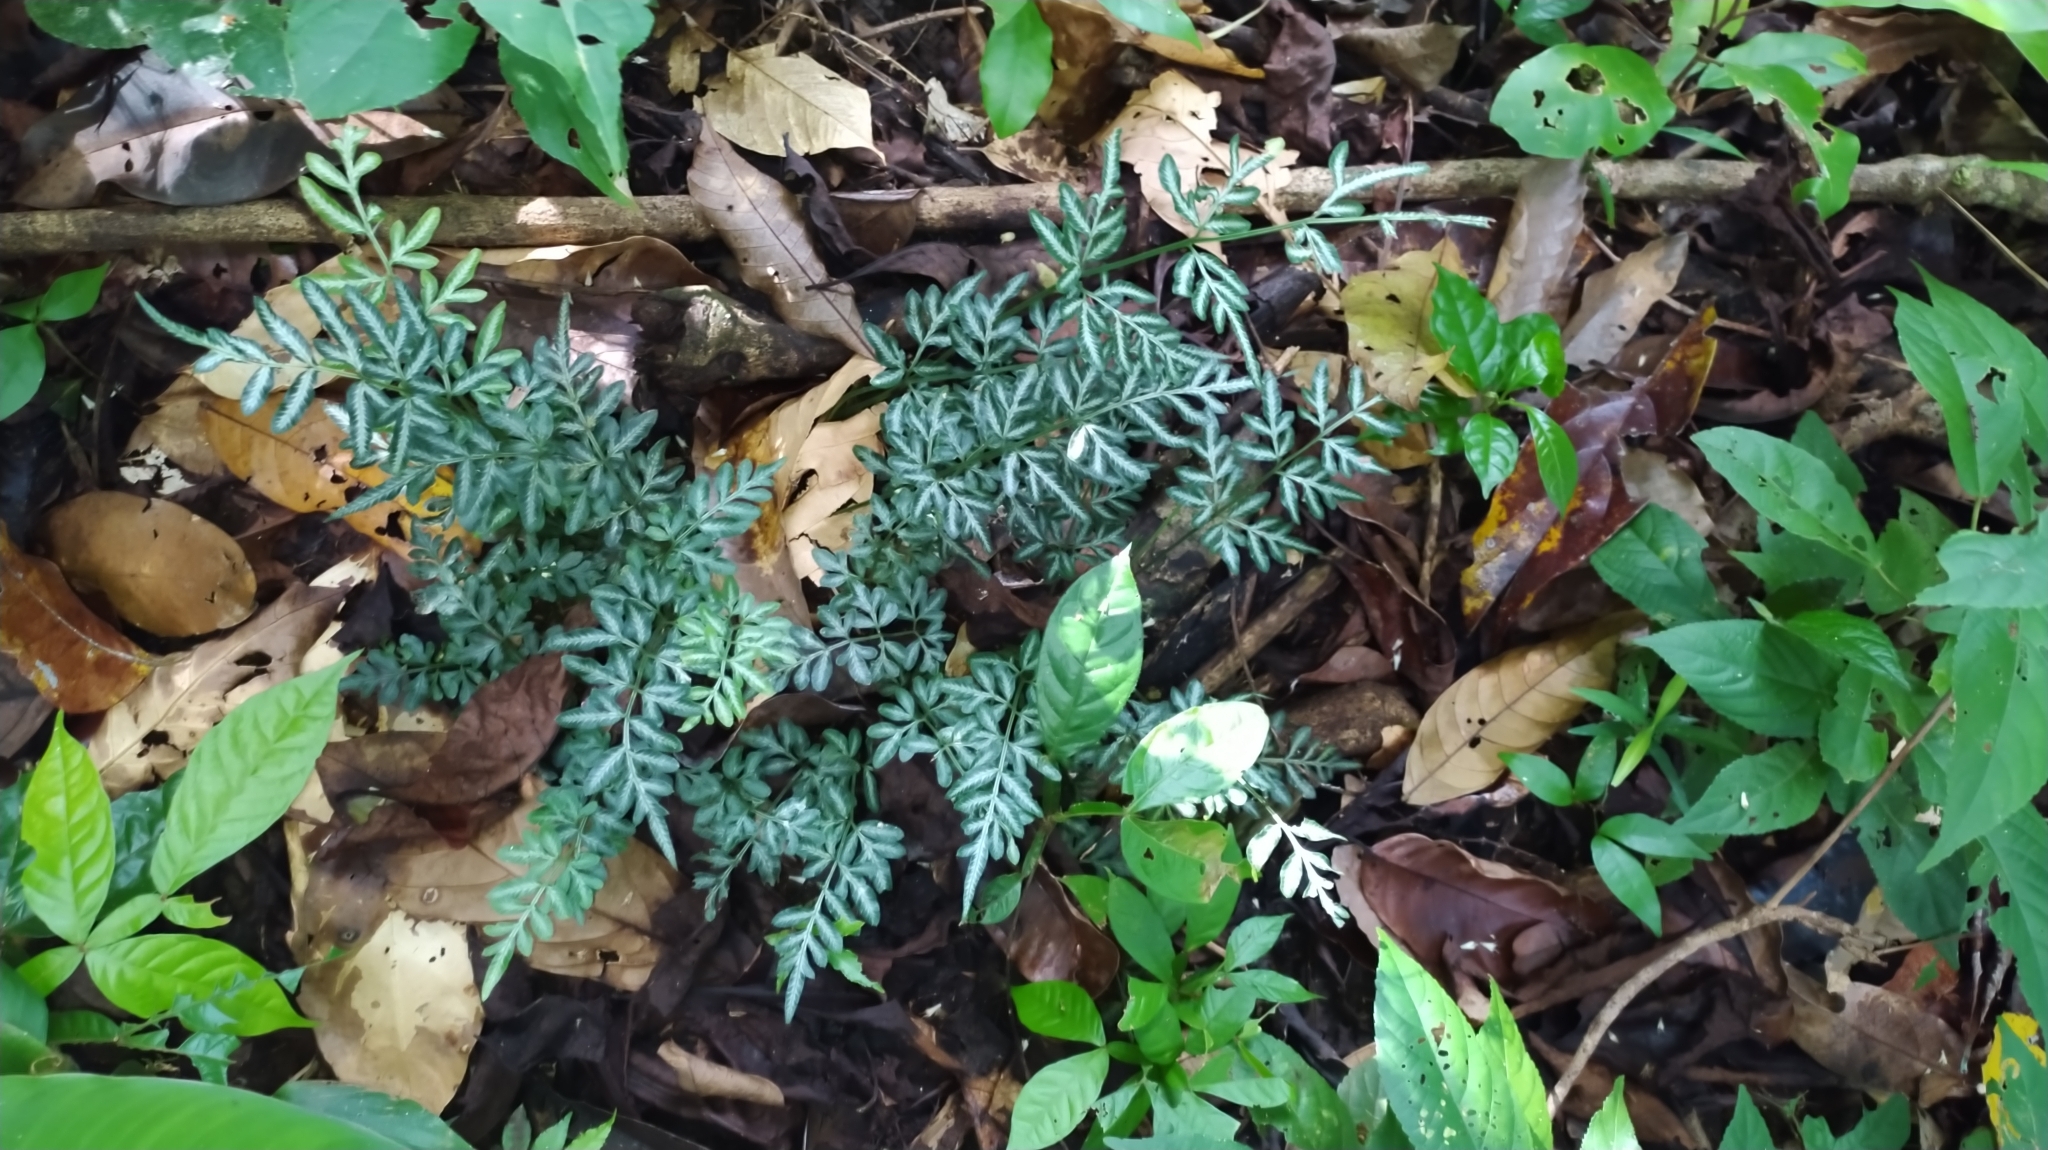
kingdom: Plantae
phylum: Tracheophyta
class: Polypodiopsida
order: Polypodiales
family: Pteridaceae
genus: Pteris
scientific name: Pteris ensiformis
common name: Sword brake
